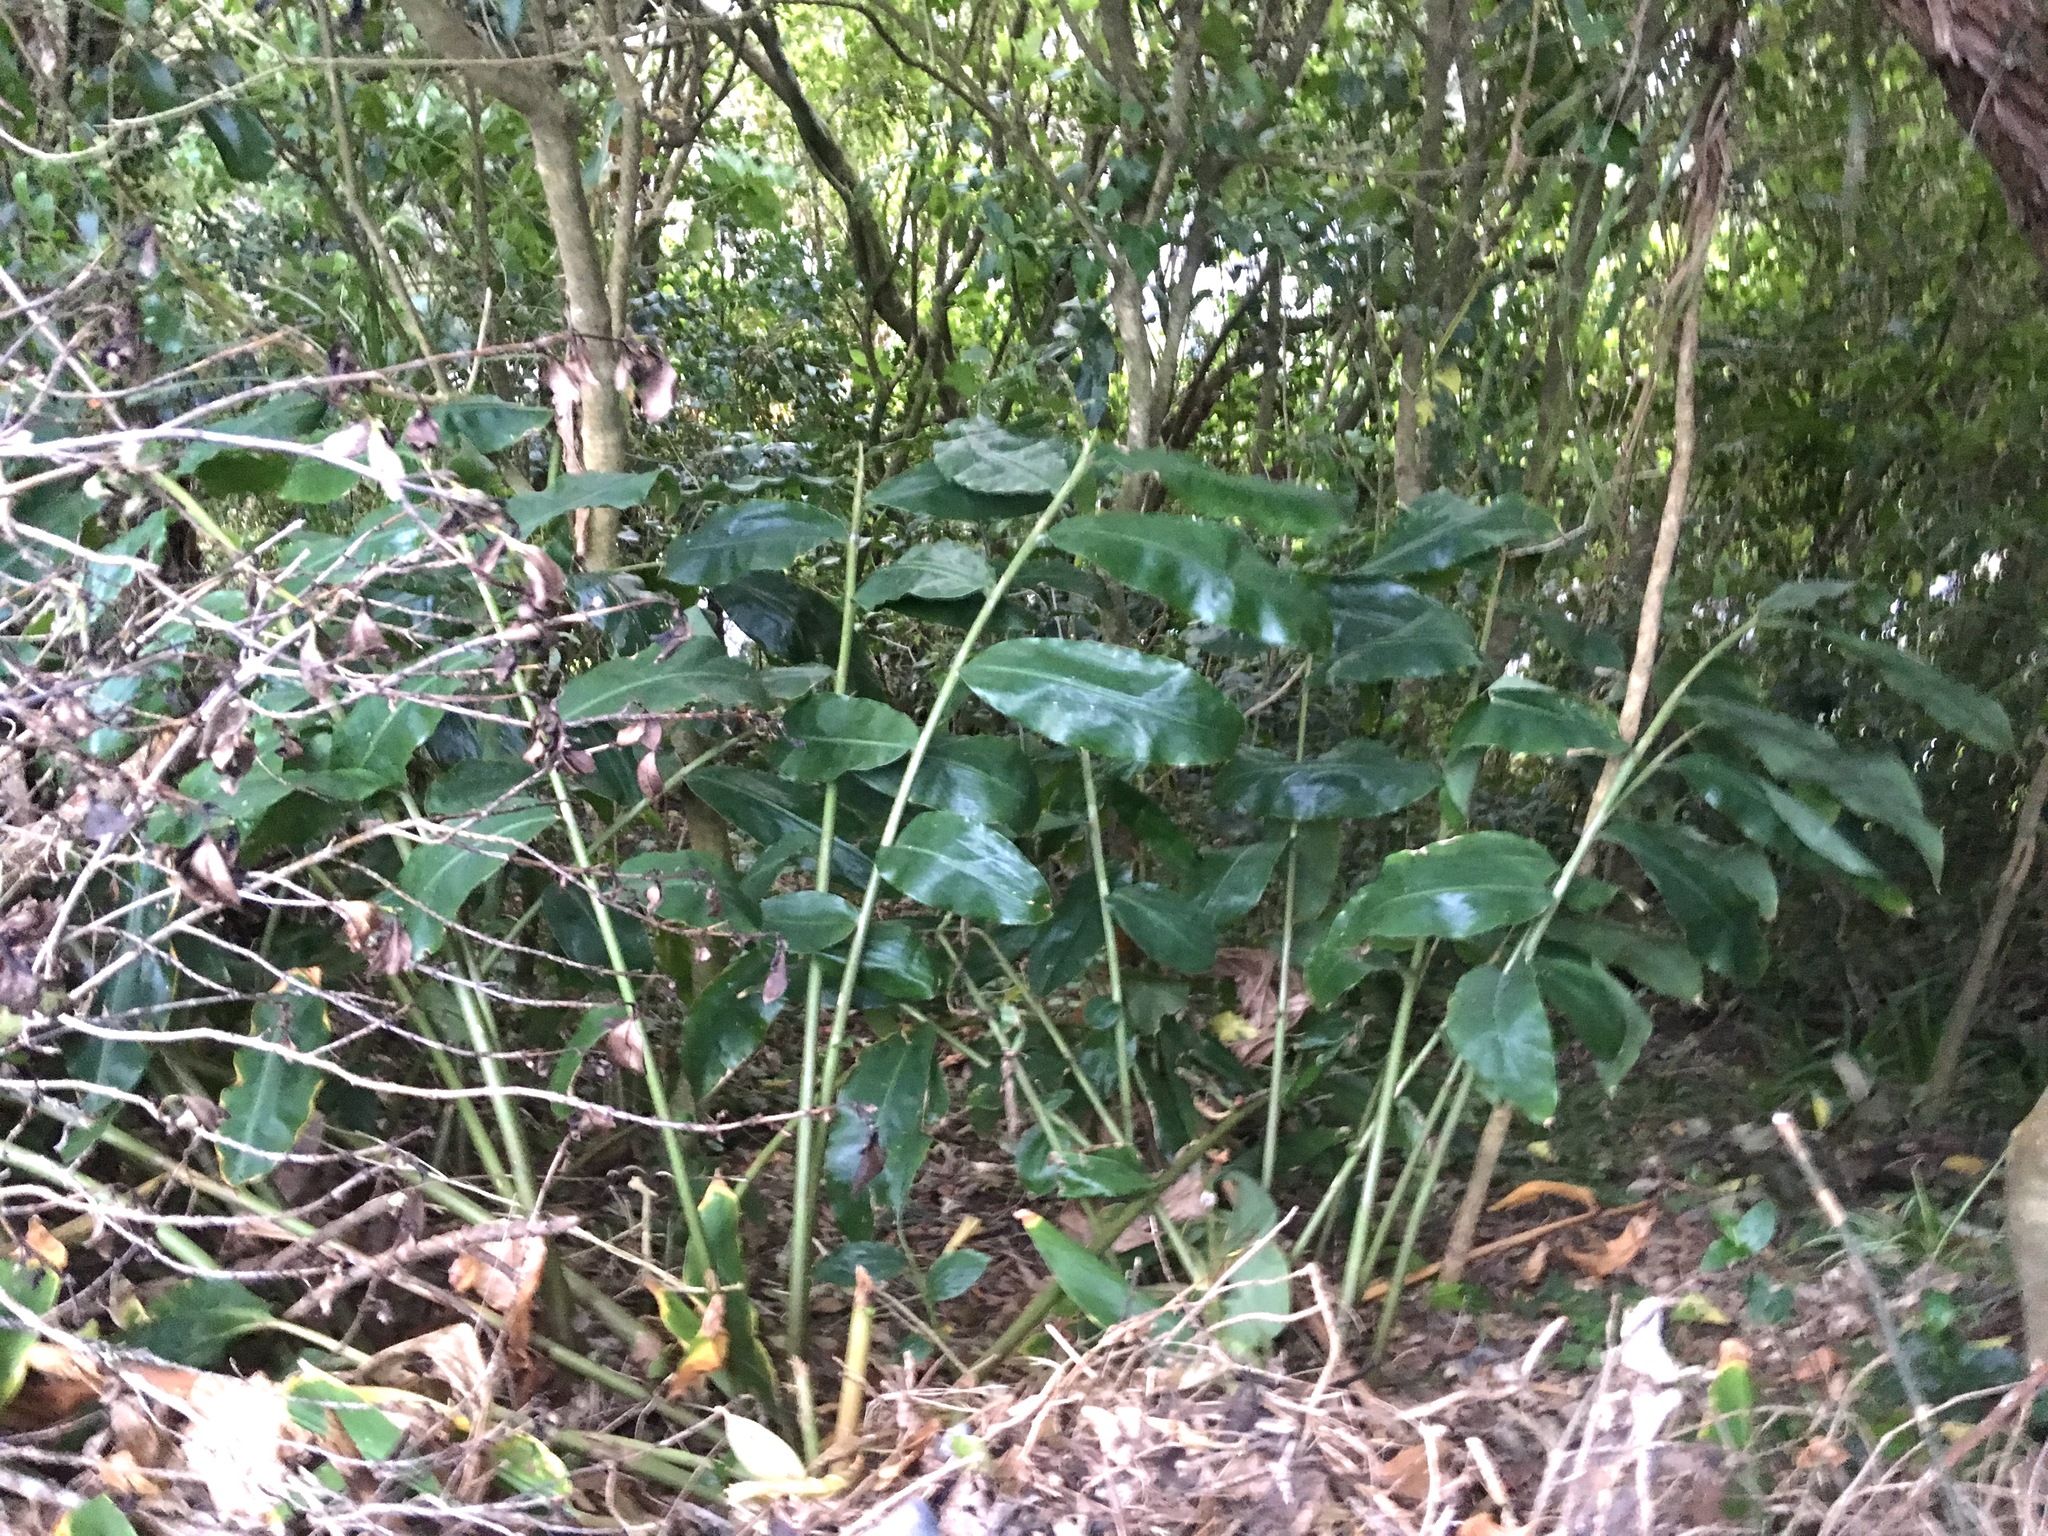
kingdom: Plantae
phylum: Tracheophyta
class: Liliopsida
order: Zingiberales
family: Zingiberaceae
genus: Hedychium
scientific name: Hedychium gardnerianum
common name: Himalayan ginger
